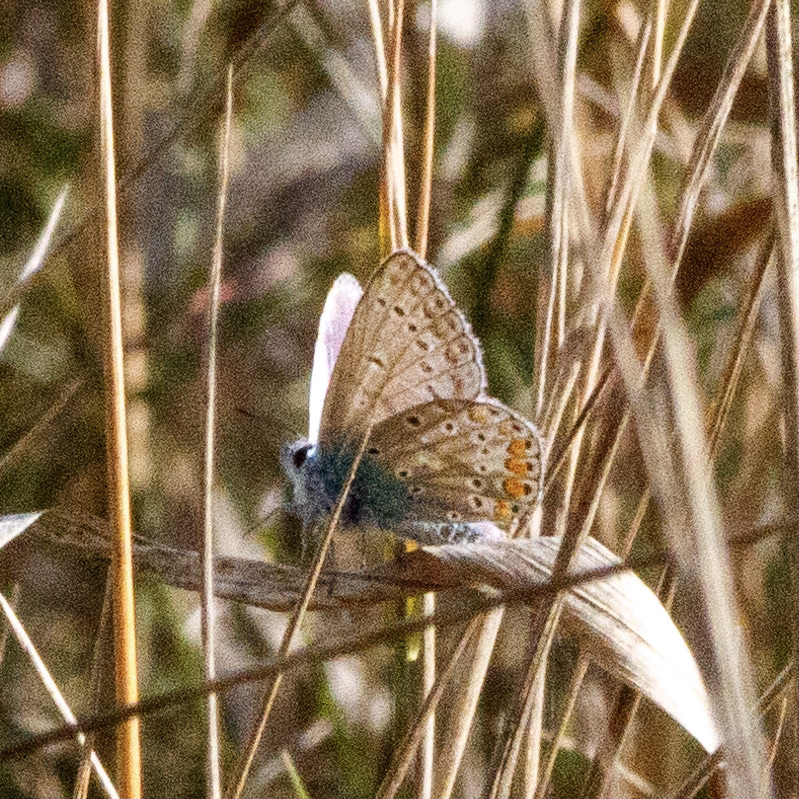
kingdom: Animalia
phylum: Arthropoda
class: Insecta
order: Lepidoptera
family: Lycaenidae
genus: Polyommatus
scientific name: Polyommatus icarus
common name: Common blue
